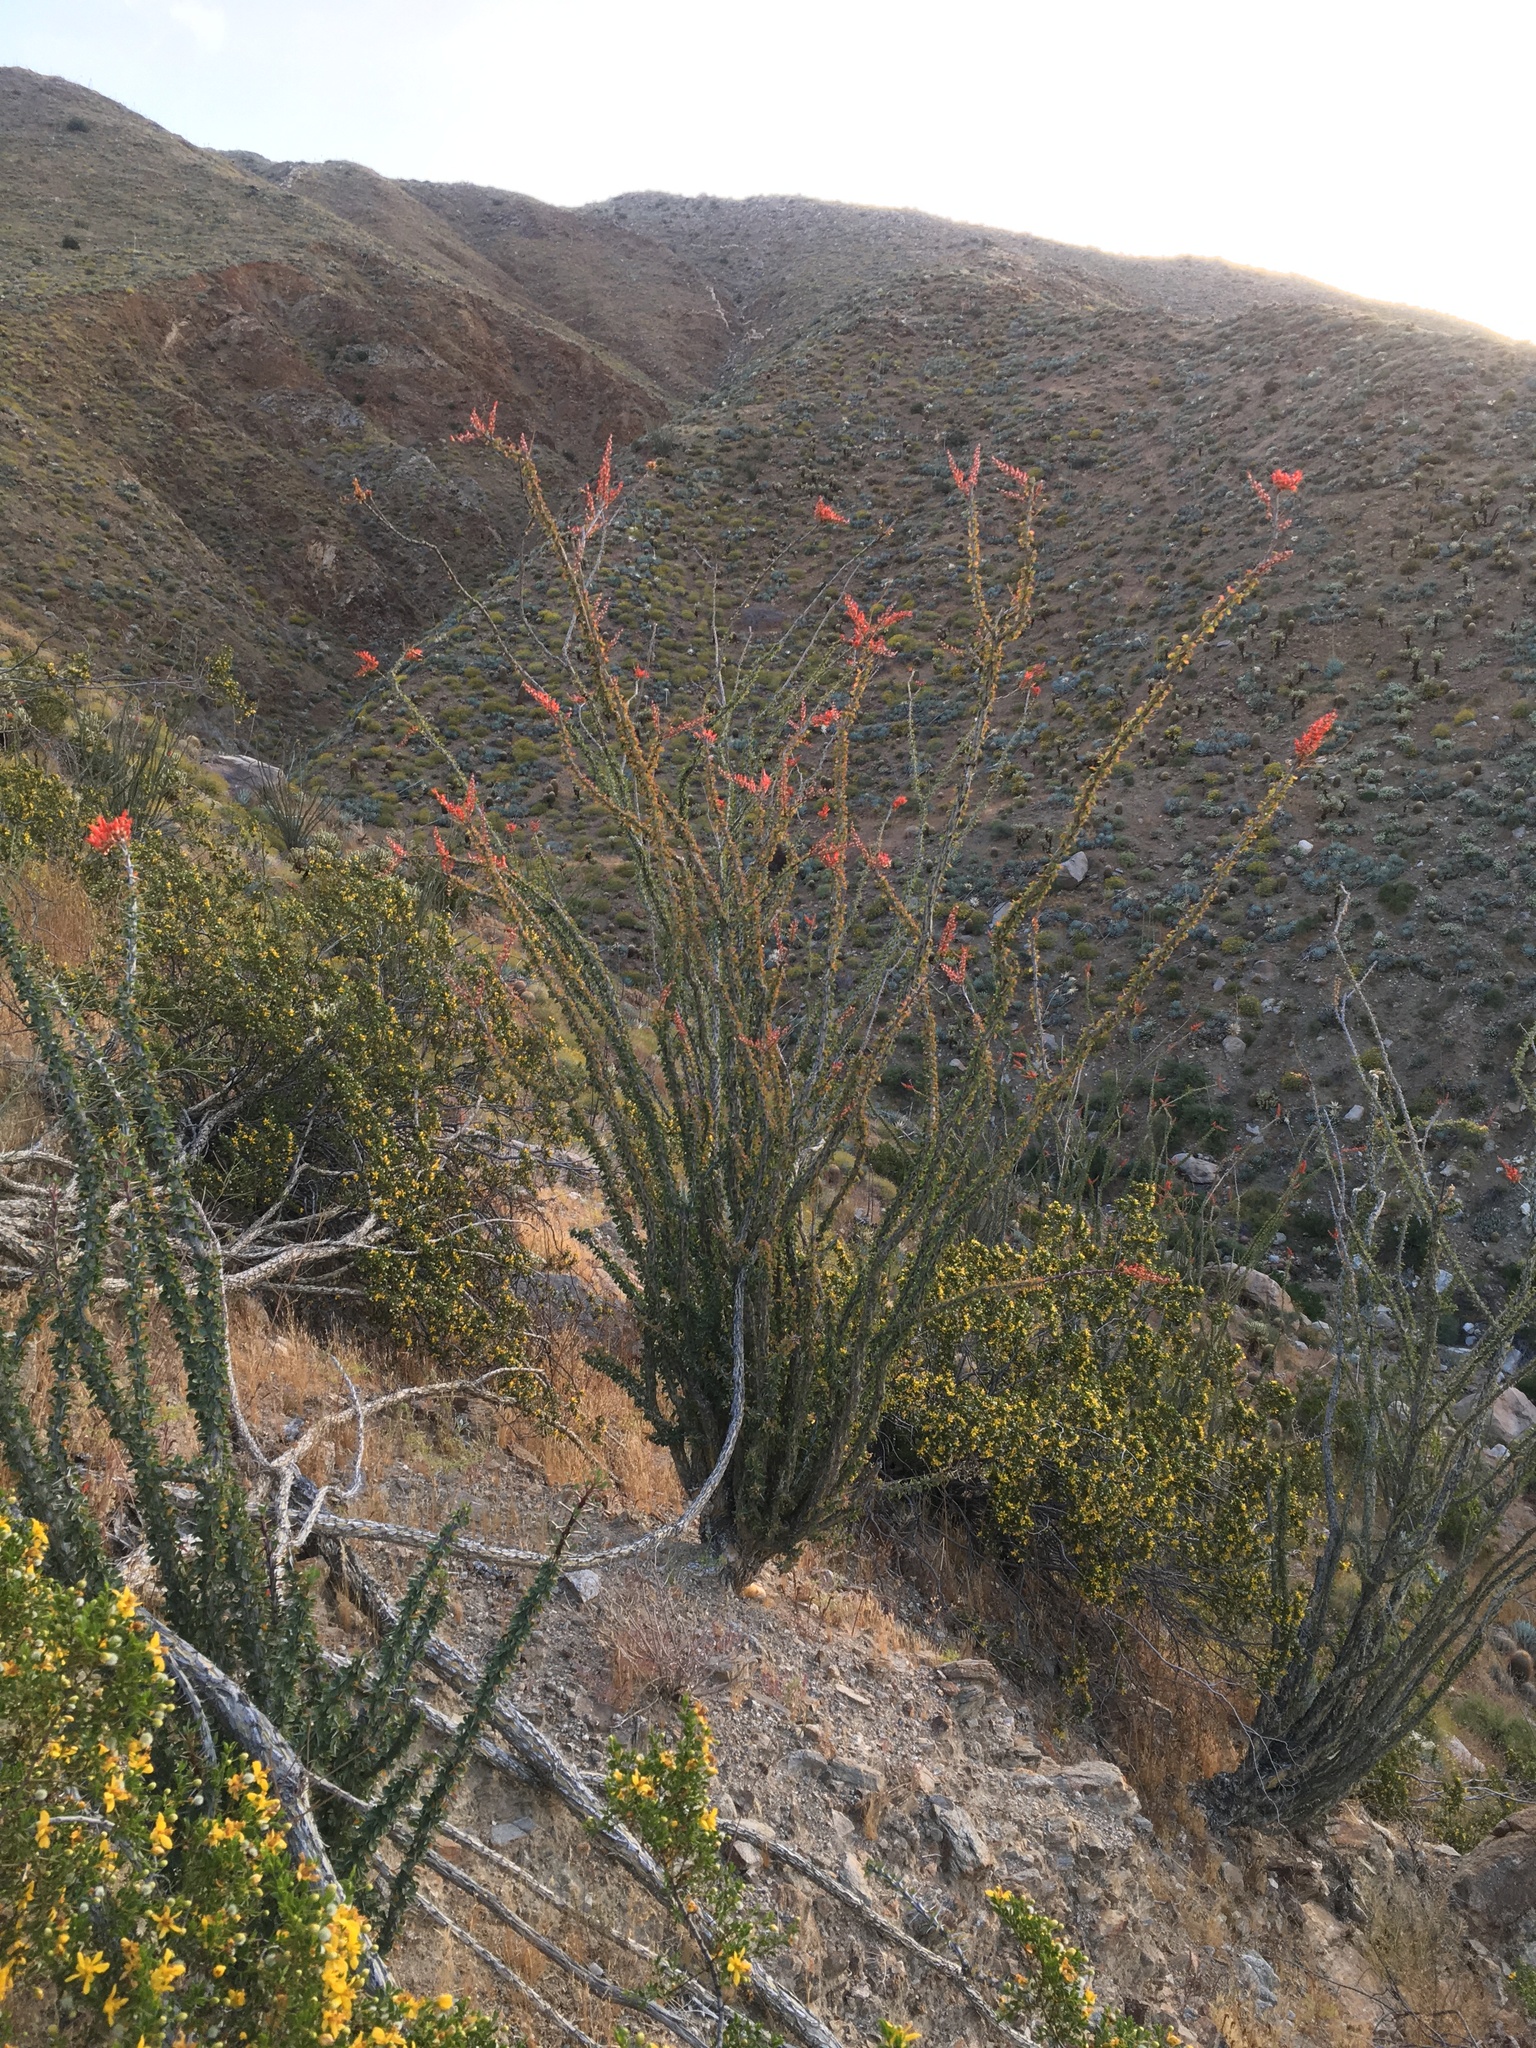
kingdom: Plantae
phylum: Tracheophyta
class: Magnoliopsida
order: Ericales
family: Fouquieriaceae
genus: Fouquieria
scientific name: Fouquieria splendens
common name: Vine-cactus
